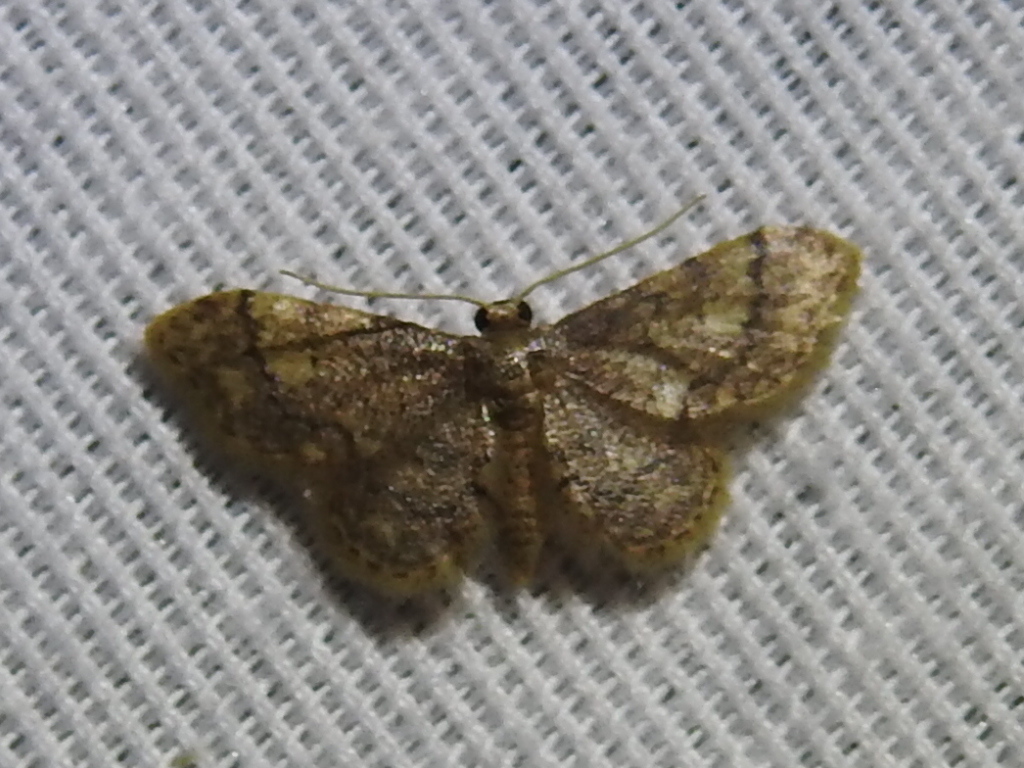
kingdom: Animalia
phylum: Arthropoda
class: Insecta
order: Lepidoptera
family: Geometridae
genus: Idaea
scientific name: Idaea celtima
